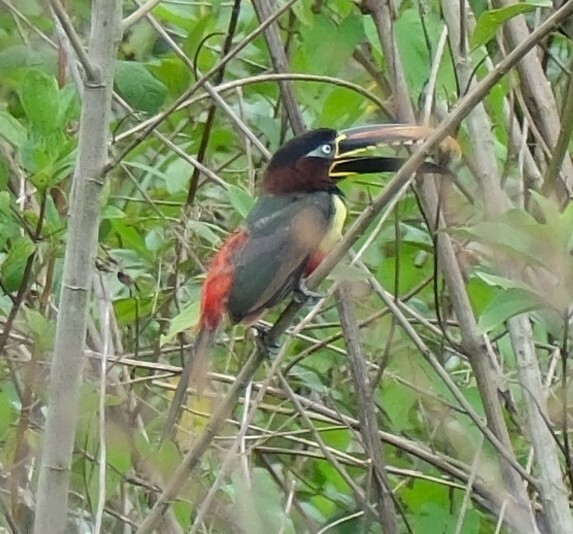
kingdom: Animalia
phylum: Chordata
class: Aves
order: Piciformes
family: Ramphastidae
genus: Pteroglossus
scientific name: Pteroglossus castanotis
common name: Chestnut-eared aracari
